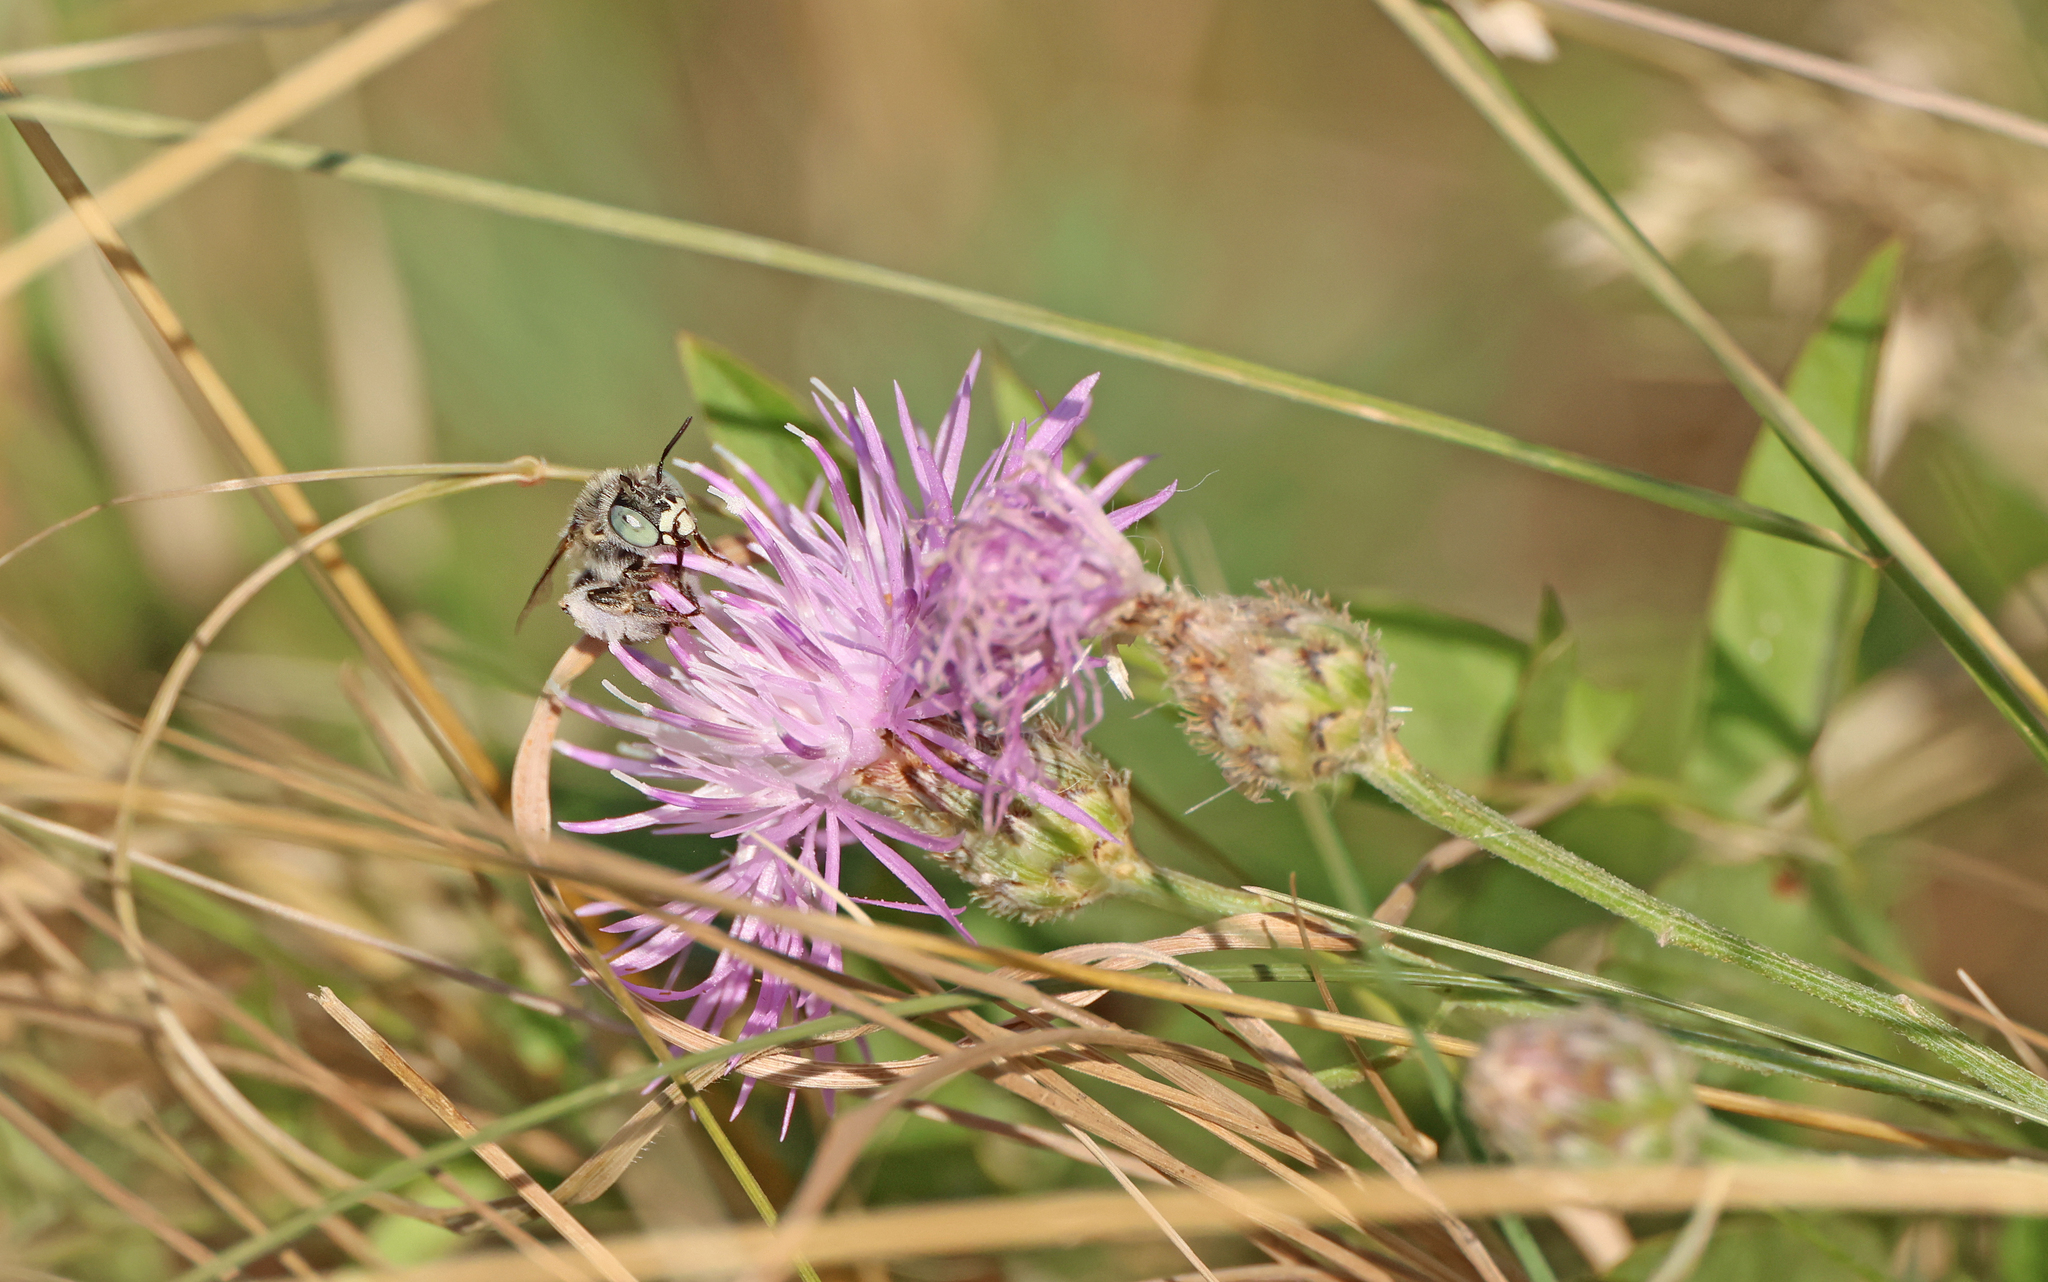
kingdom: Animalia
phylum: Arthropoda
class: Insecta
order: Hymenoptera
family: Apidae
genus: Anthophora
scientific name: Anthophora bimaculata
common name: Green-eyed flower bee
